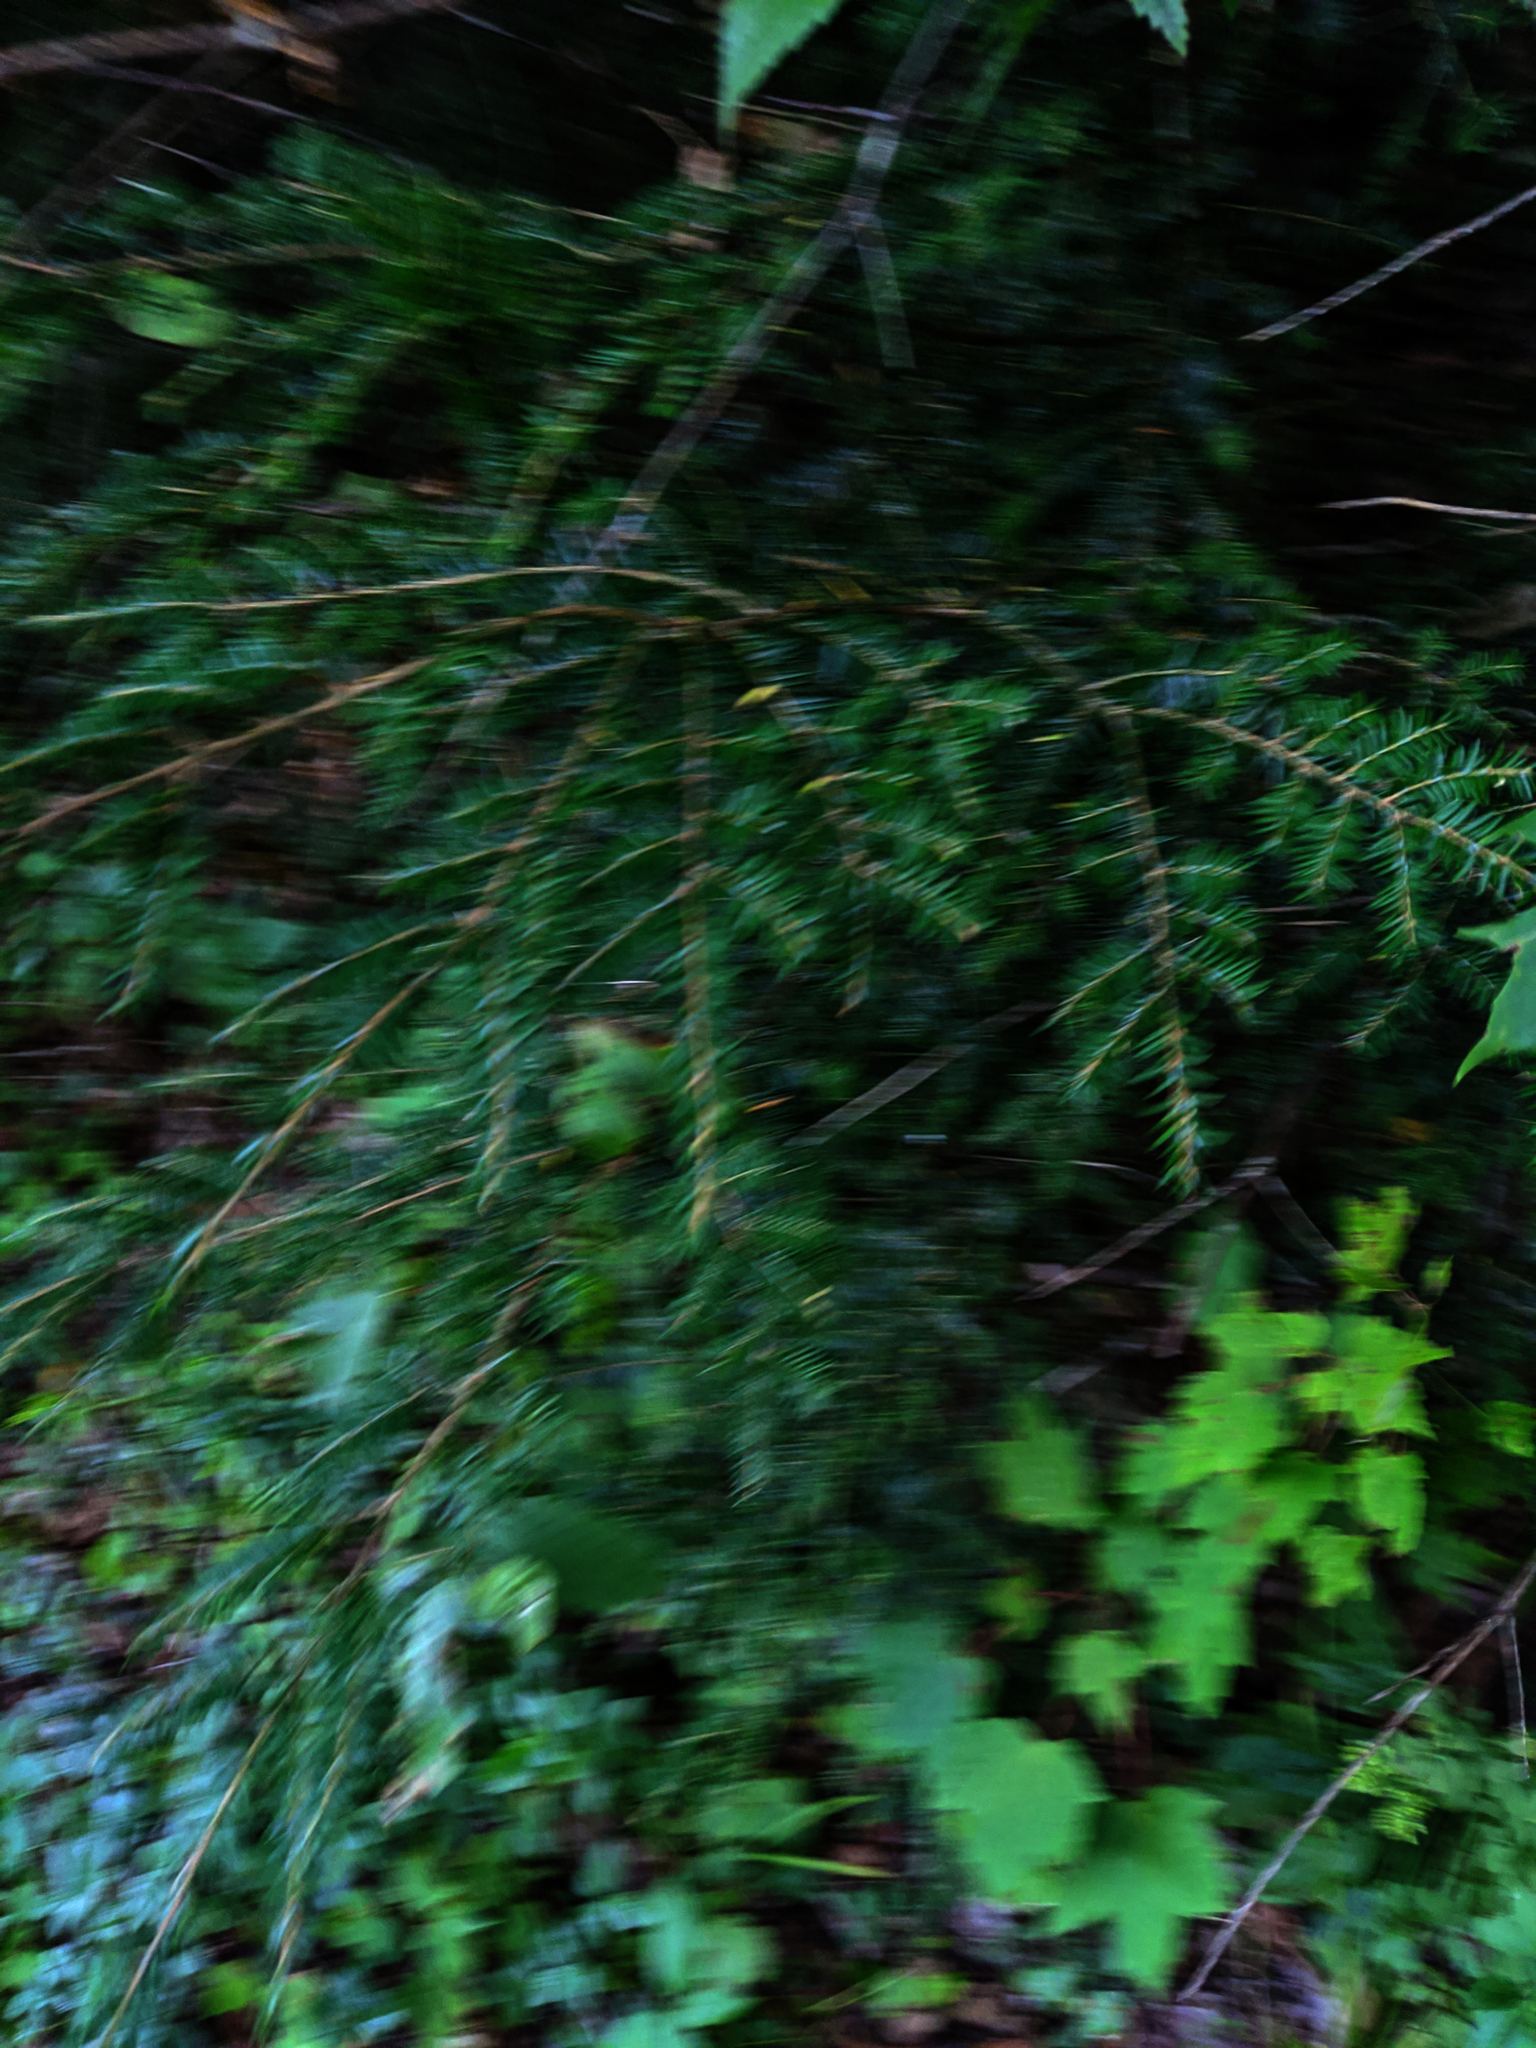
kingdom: Plantae
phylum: Tracheophyta
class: Pinopsida
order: Pinales
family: Pinaceae
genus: Tsuga
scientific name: Tsuga canadensis
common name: Eastern hemlock
